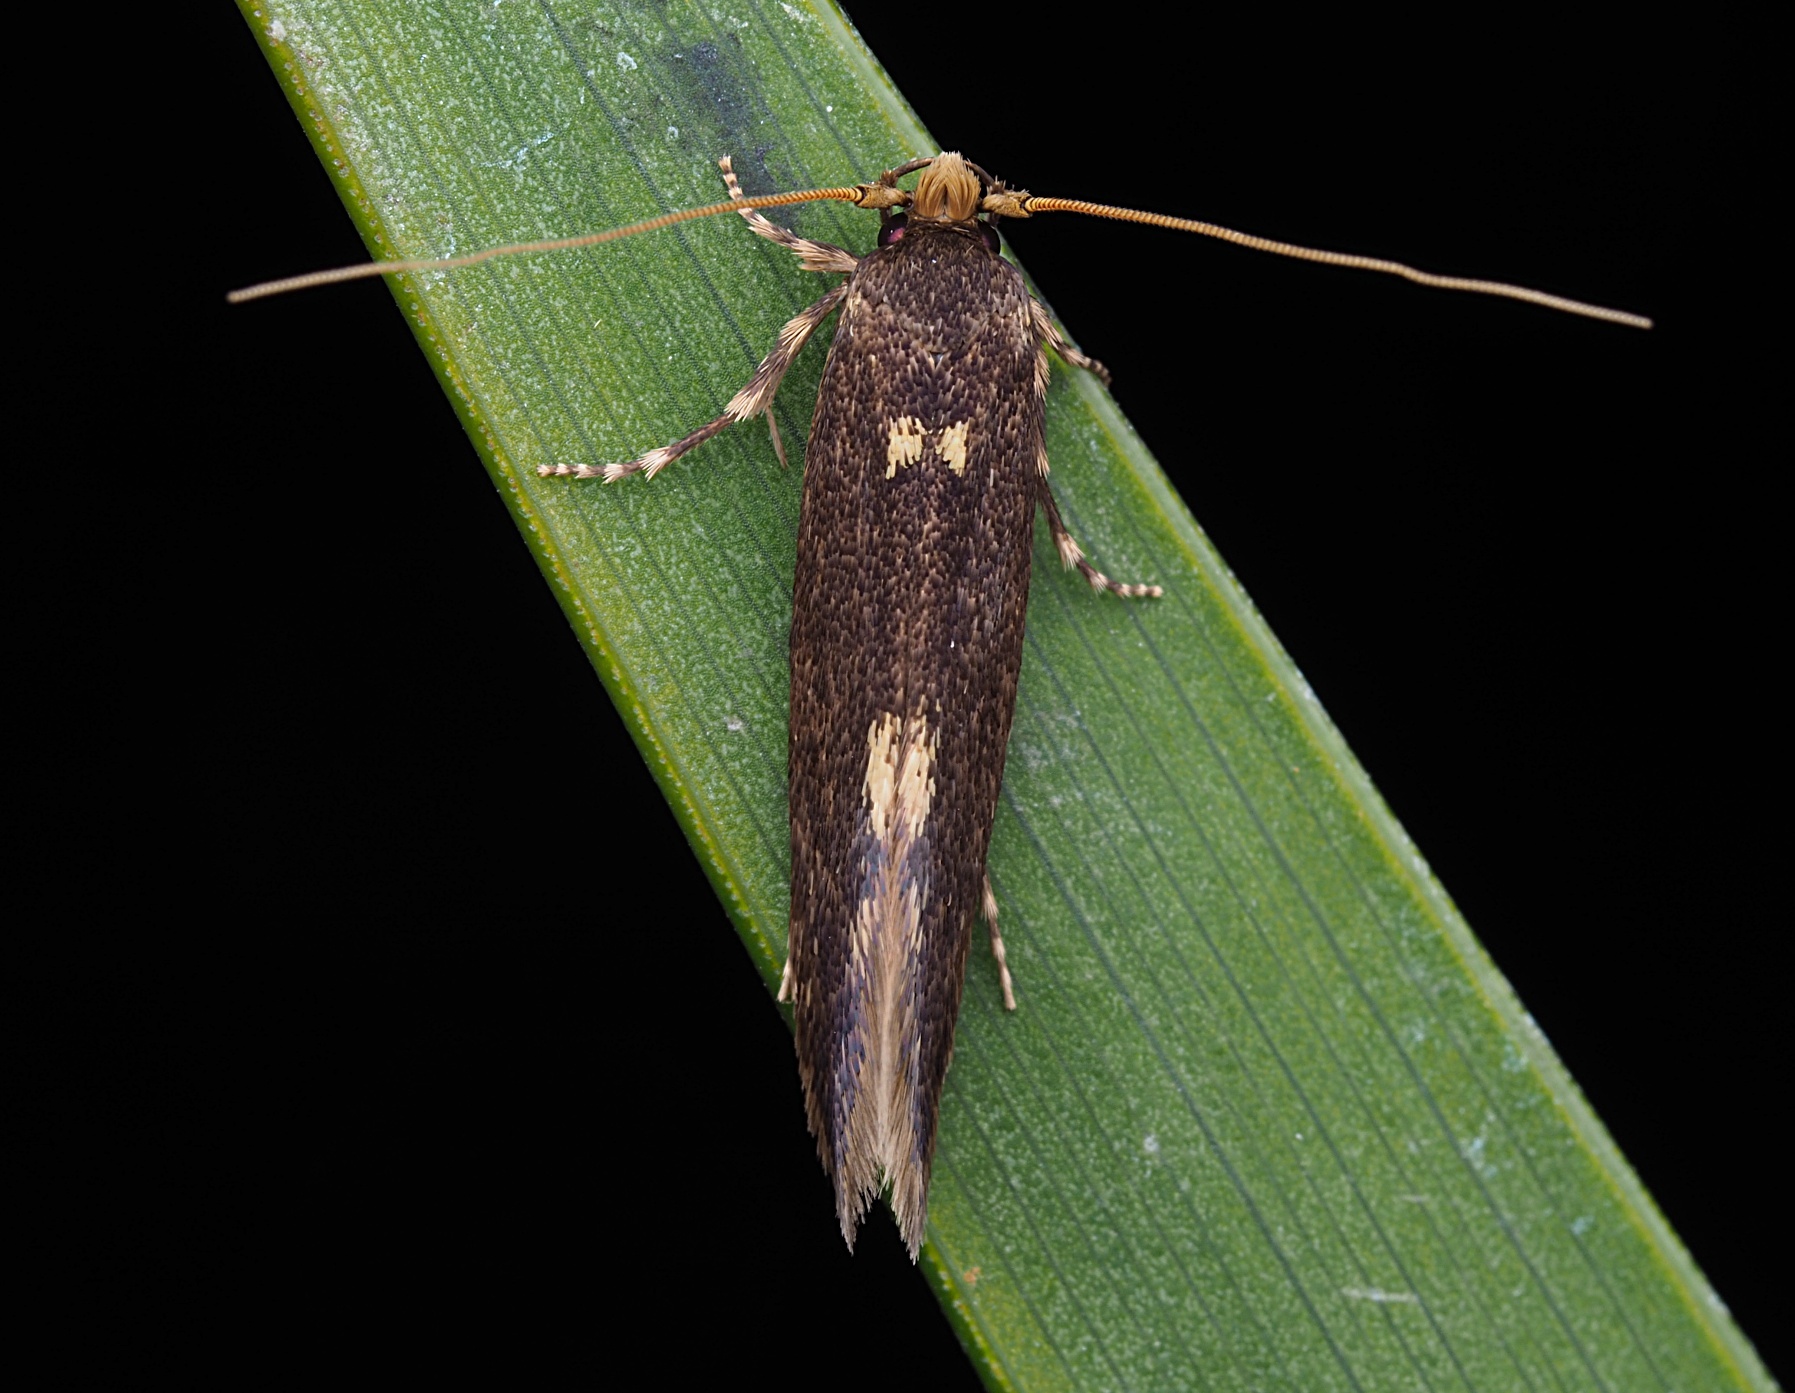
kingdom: Animalia
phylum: Arthropoda
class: Insecta
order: Lepidoptera
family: Tineidae
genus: Opogona
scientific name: Opogona omoscopa
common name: Moth
